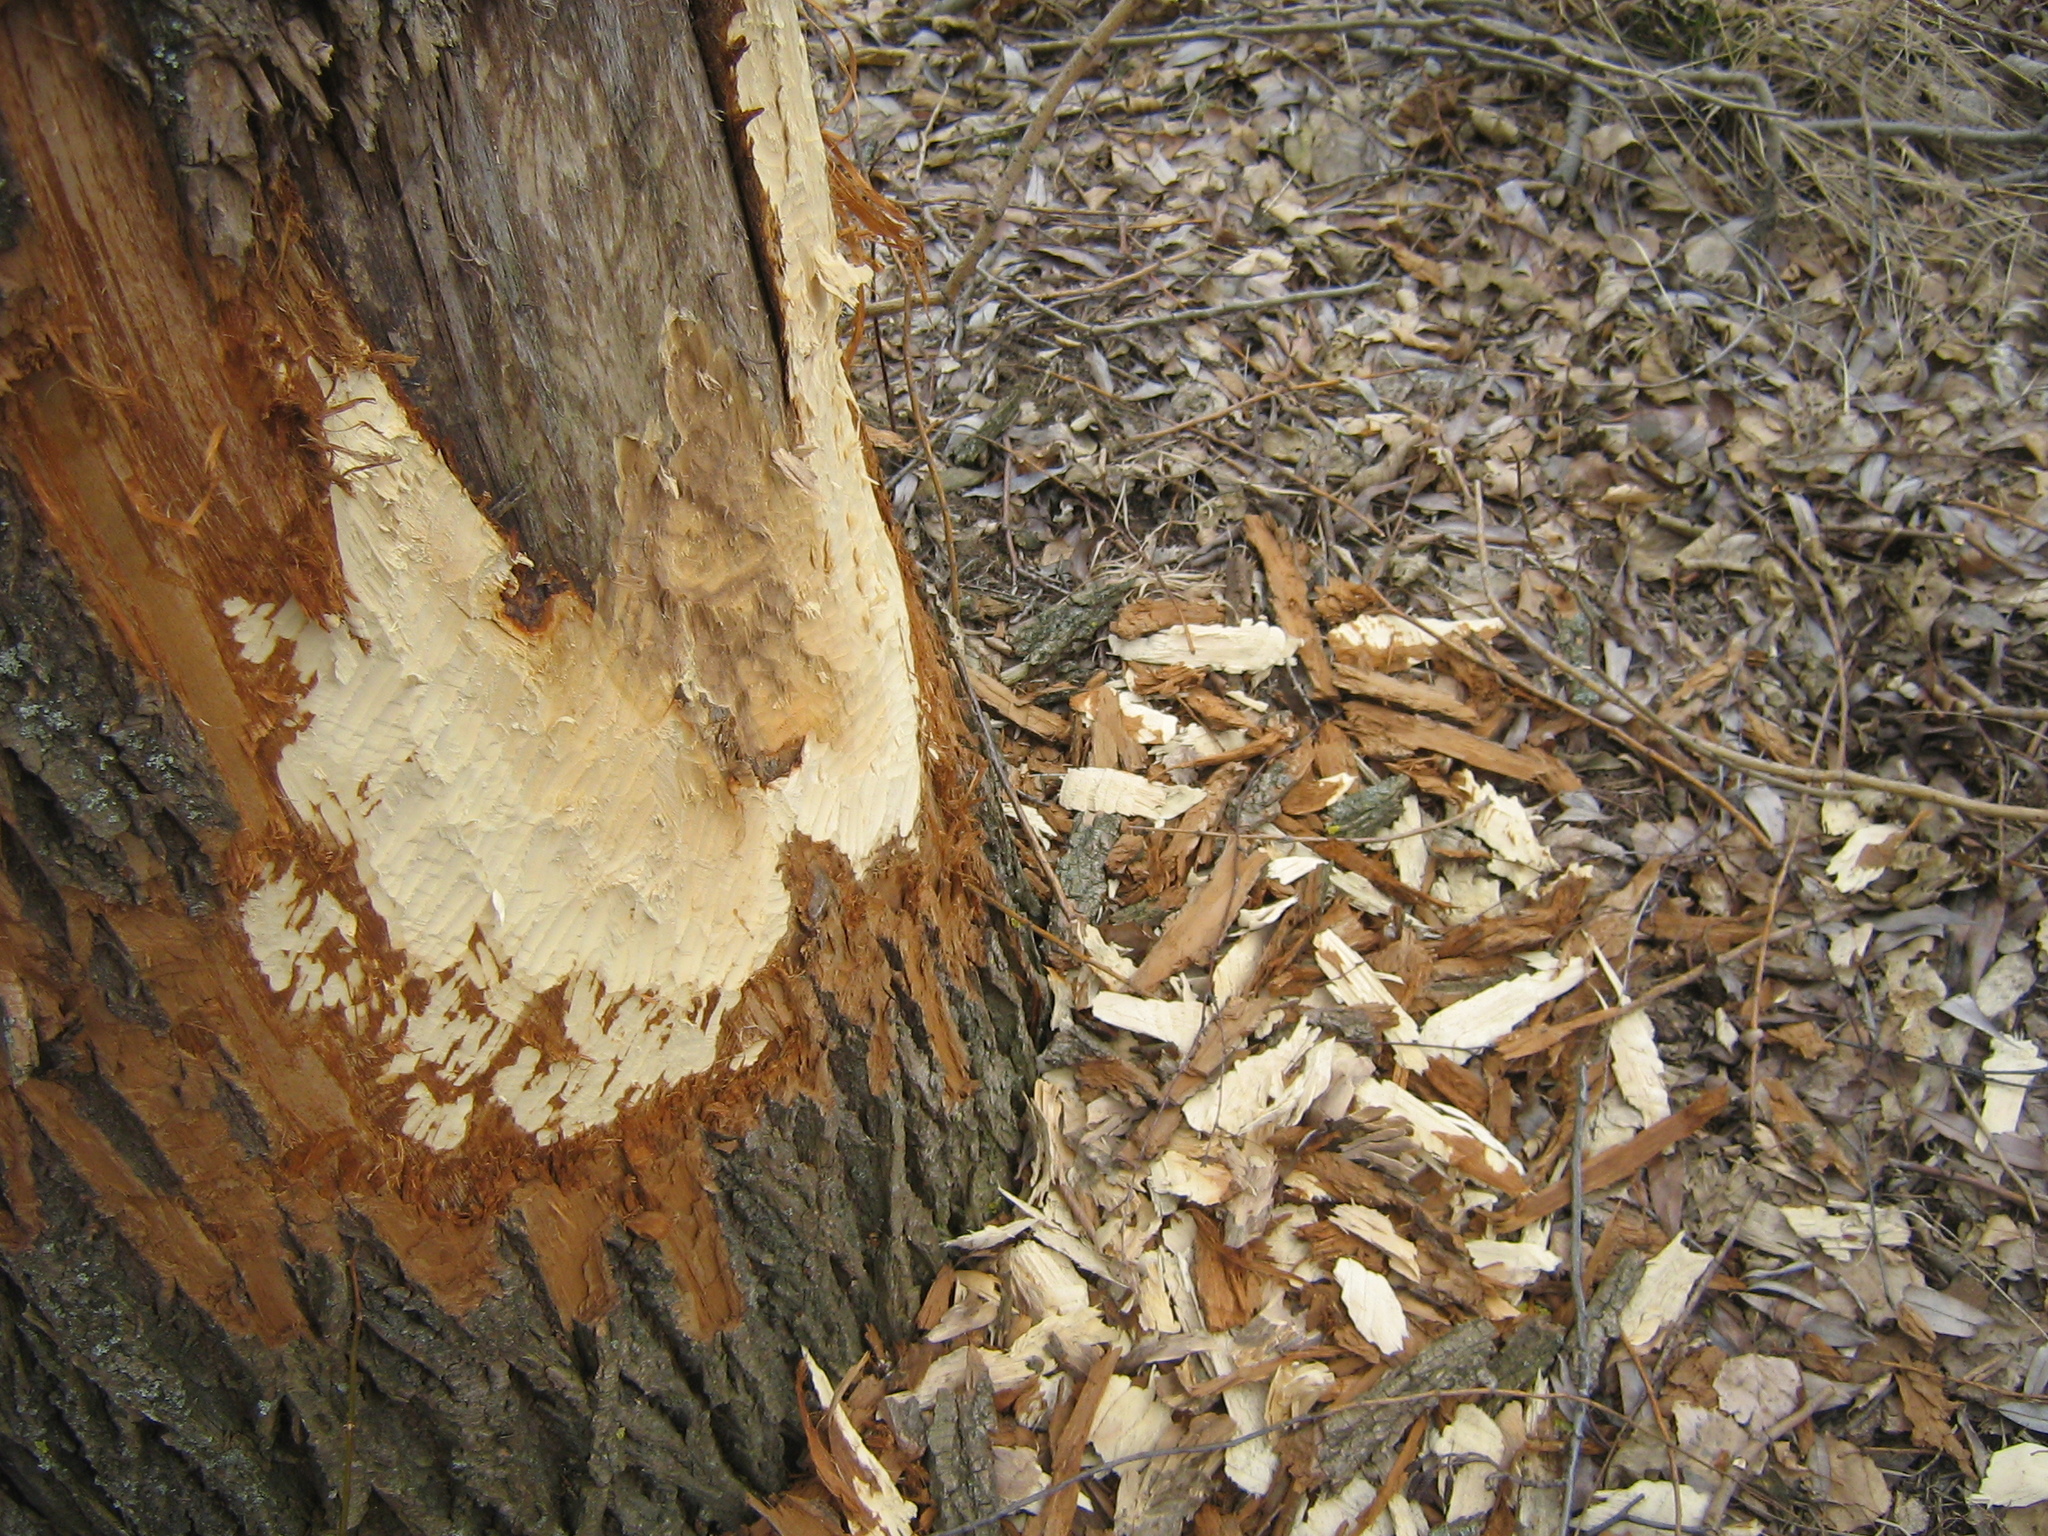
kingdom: Animalia
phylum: Chordata
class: Mammalia
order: Rodentia
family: Castoridae
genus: Castor
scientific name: Castor fiber
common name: Eurasian beaver
